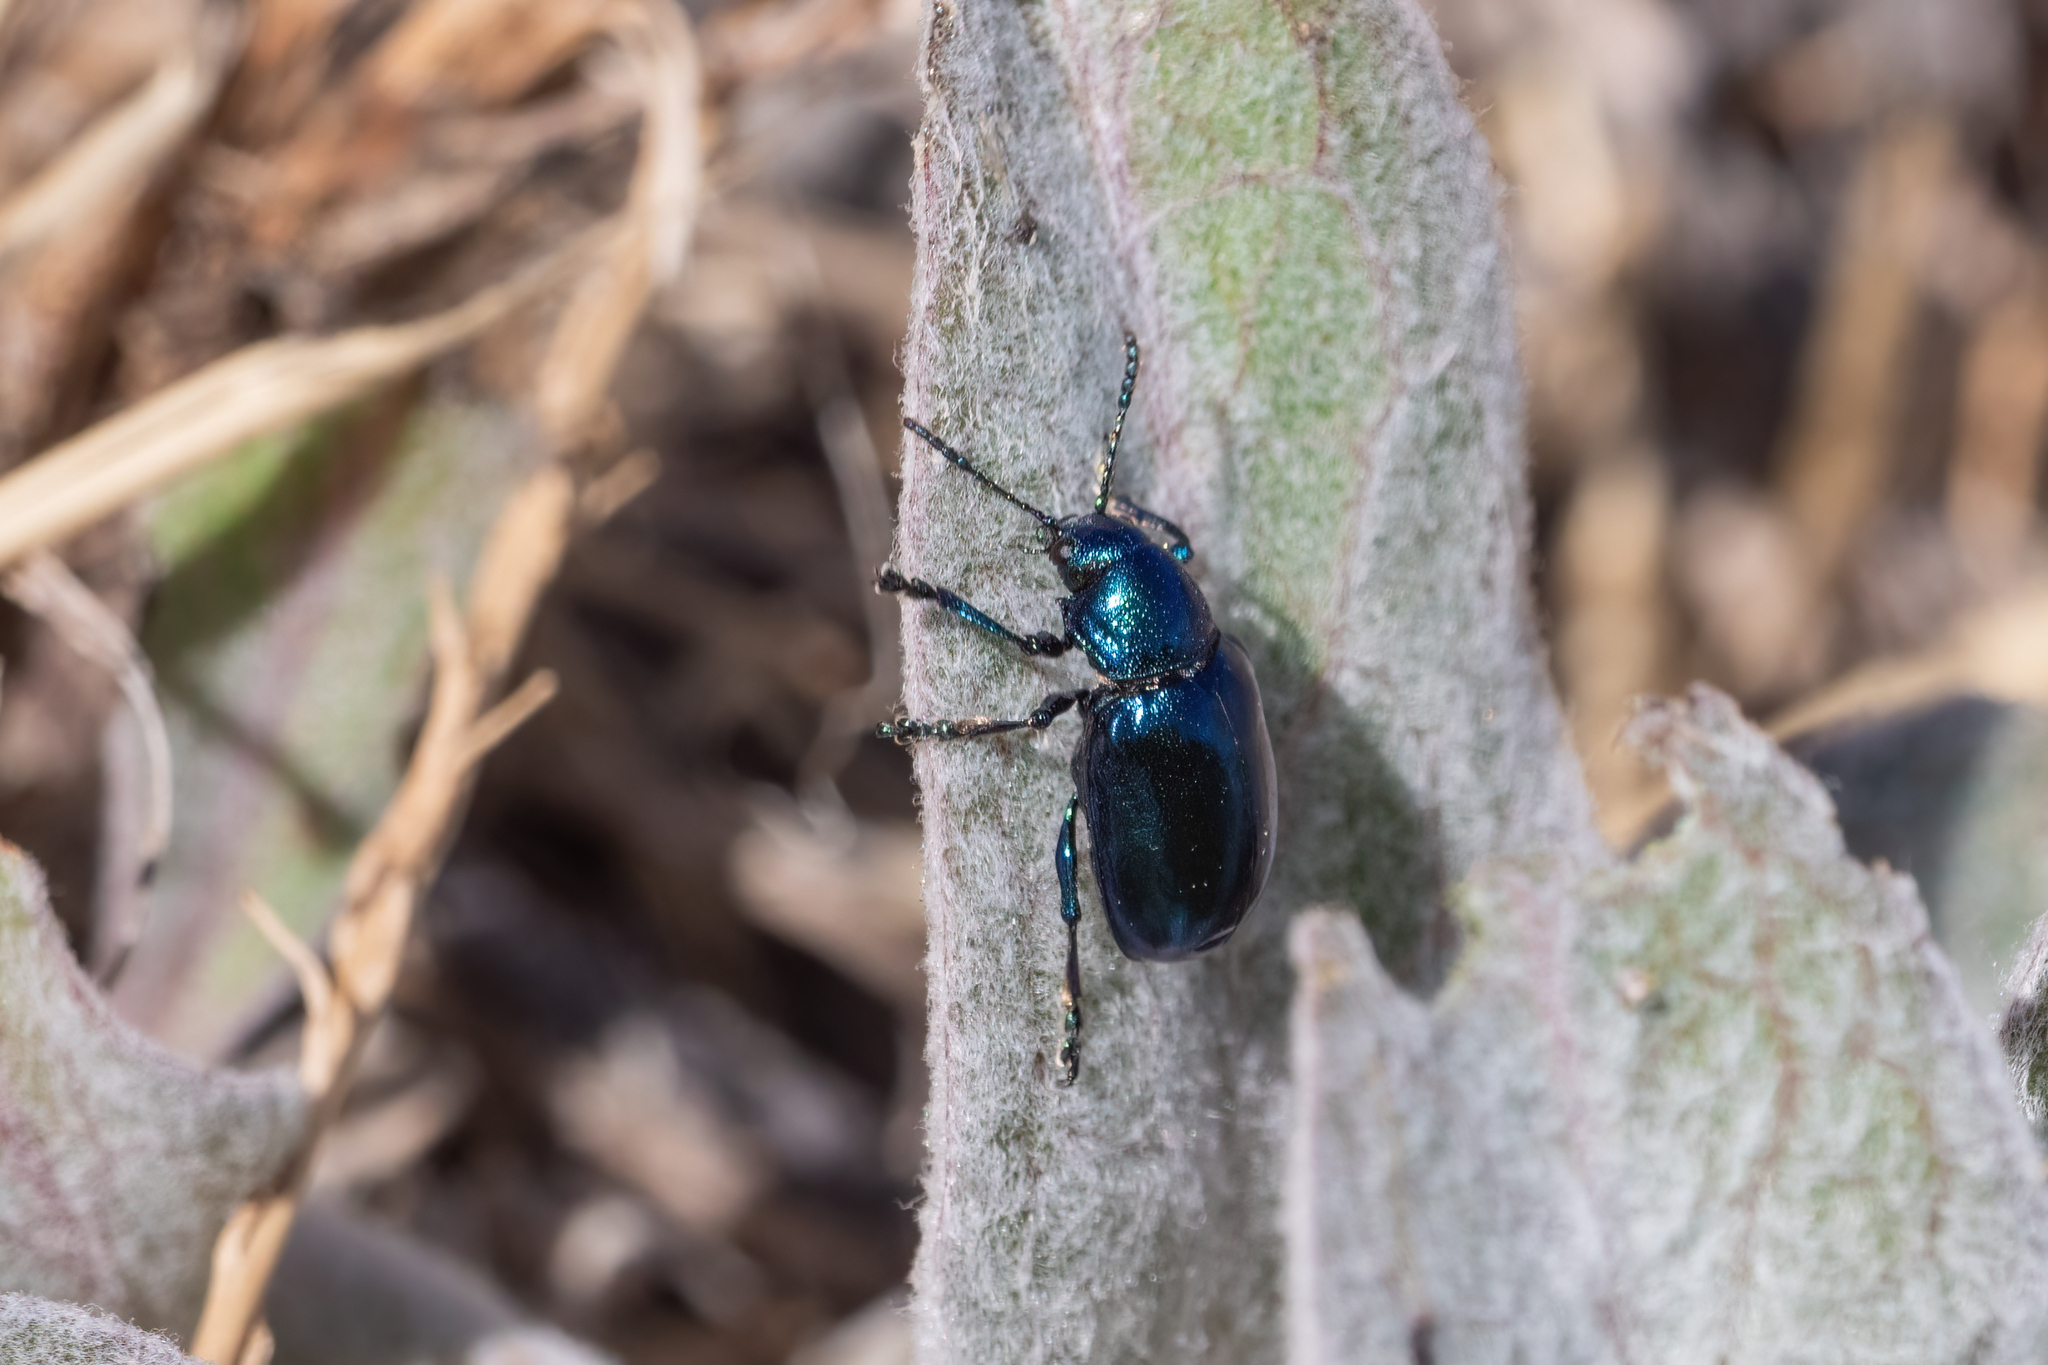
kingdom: Animalia
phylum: Arthropoda
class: Insecta
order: Coleoptera
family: Chrysomelidae
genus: Chrysochus
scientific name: Chrysochus cobaltinus
